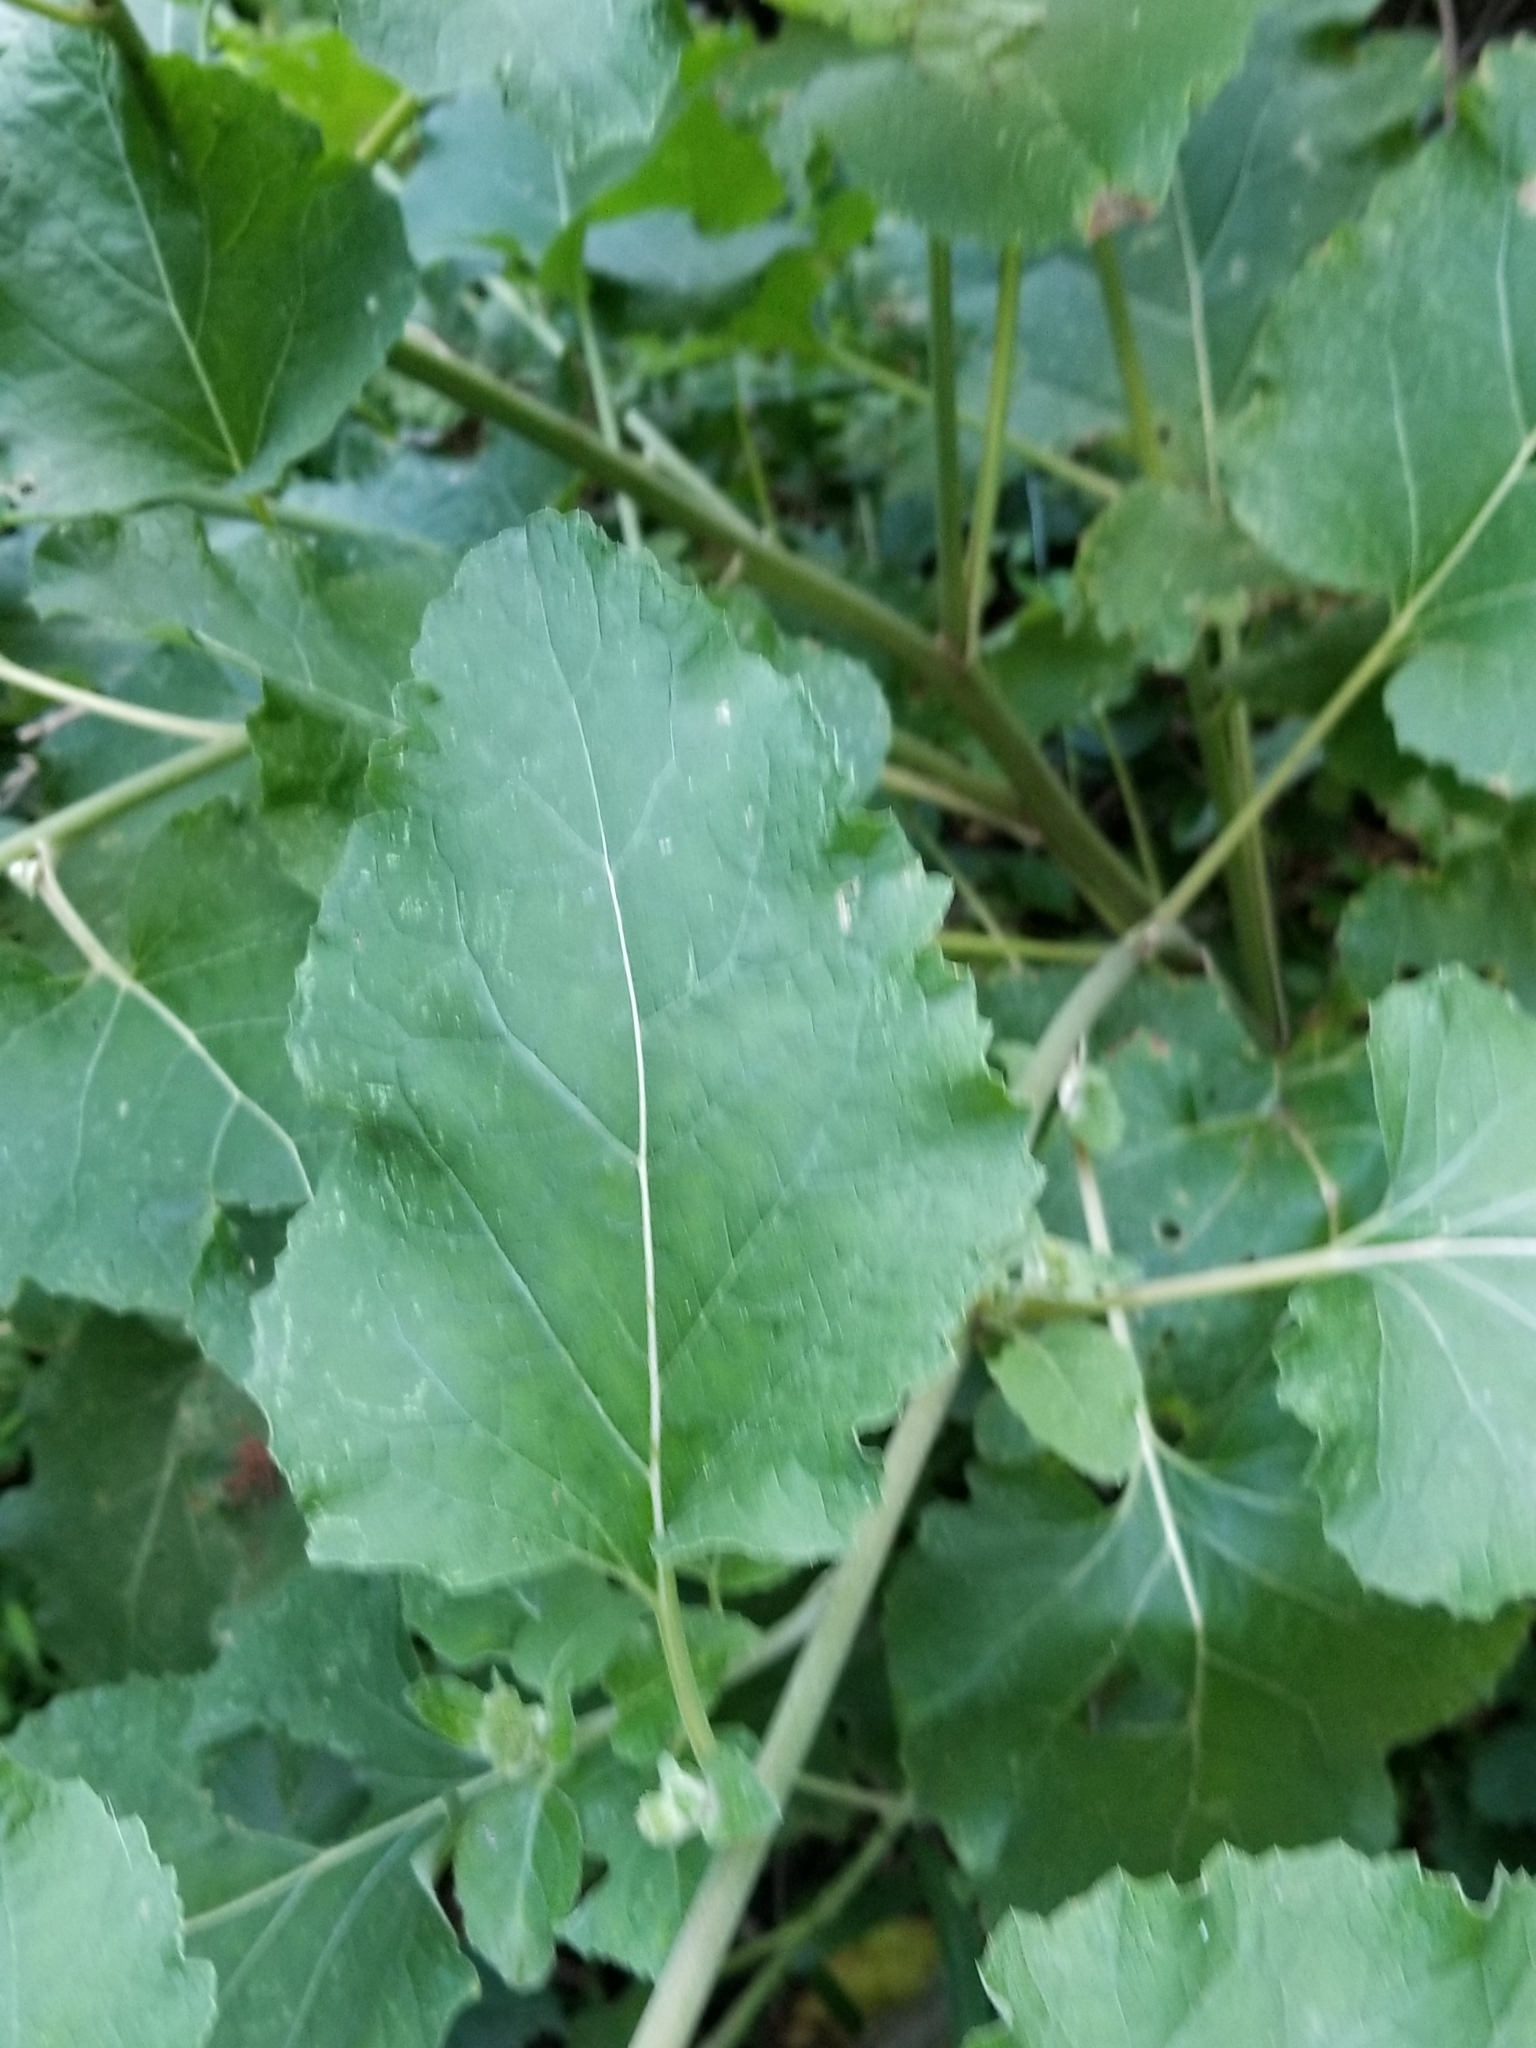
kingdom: Plantae
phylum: Tracheophyta
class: Magnoliopsida
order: Asterales
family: Asteraceae
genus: Arctium
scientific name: Arctium minus
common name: Lesser burdock
